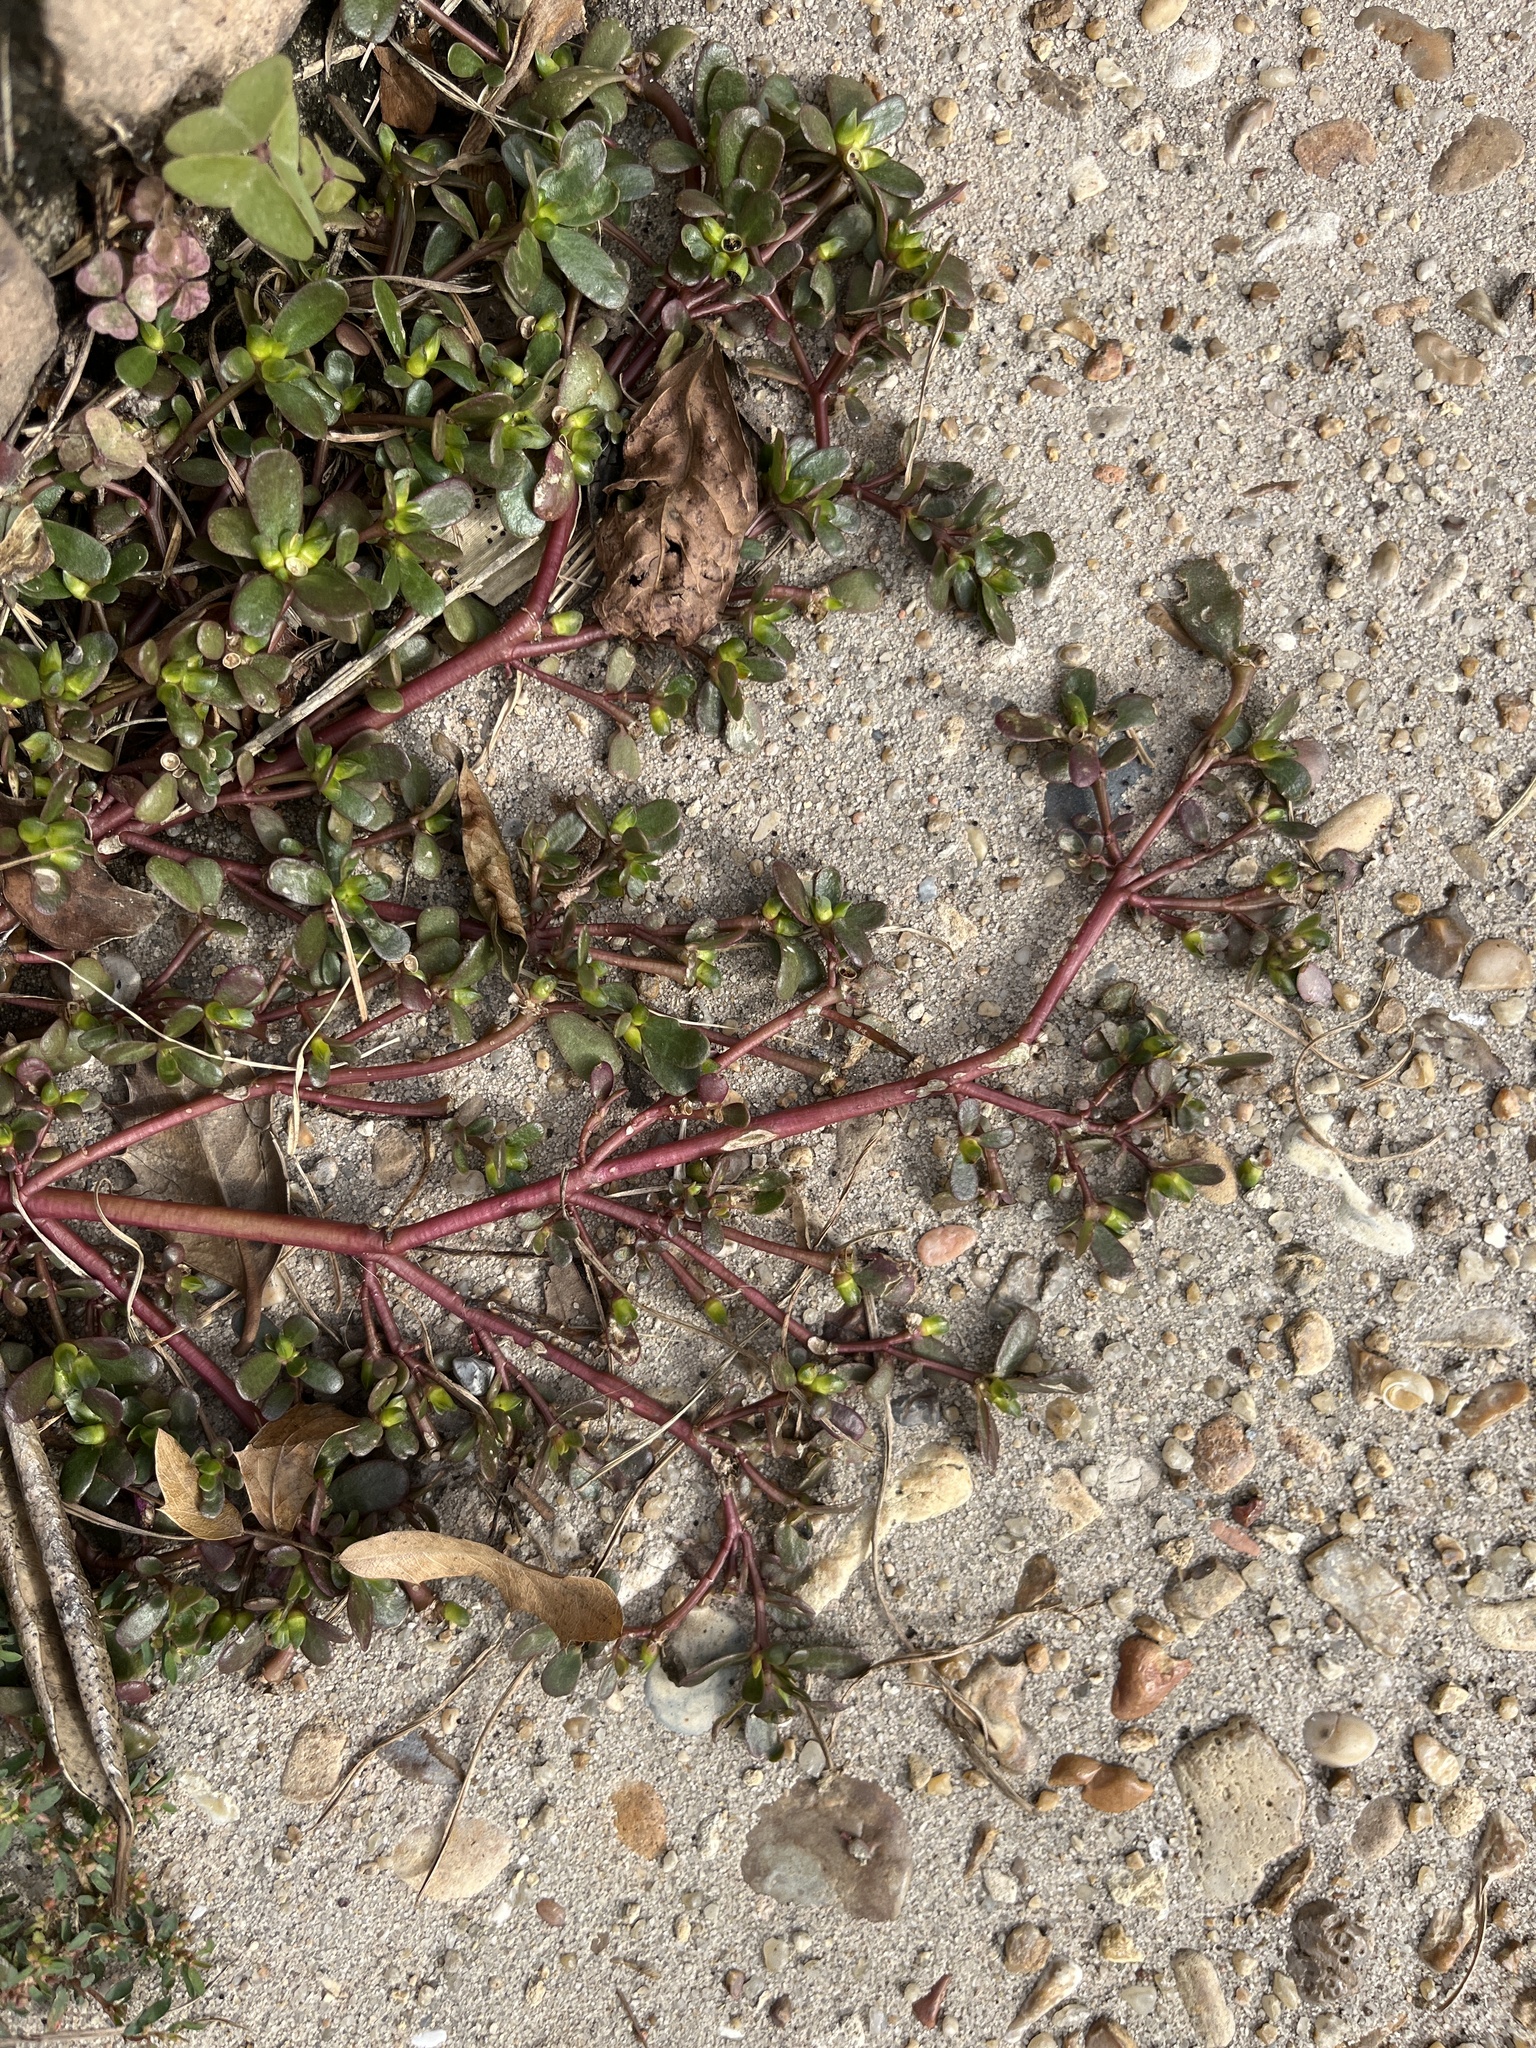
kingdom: Plantae
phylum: Tracheophyta
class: Magnoliopsida
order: Caryophyllales
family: Portulacaceae
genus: Portulaca
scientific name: Portulaca oleracea
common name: Common purslane
